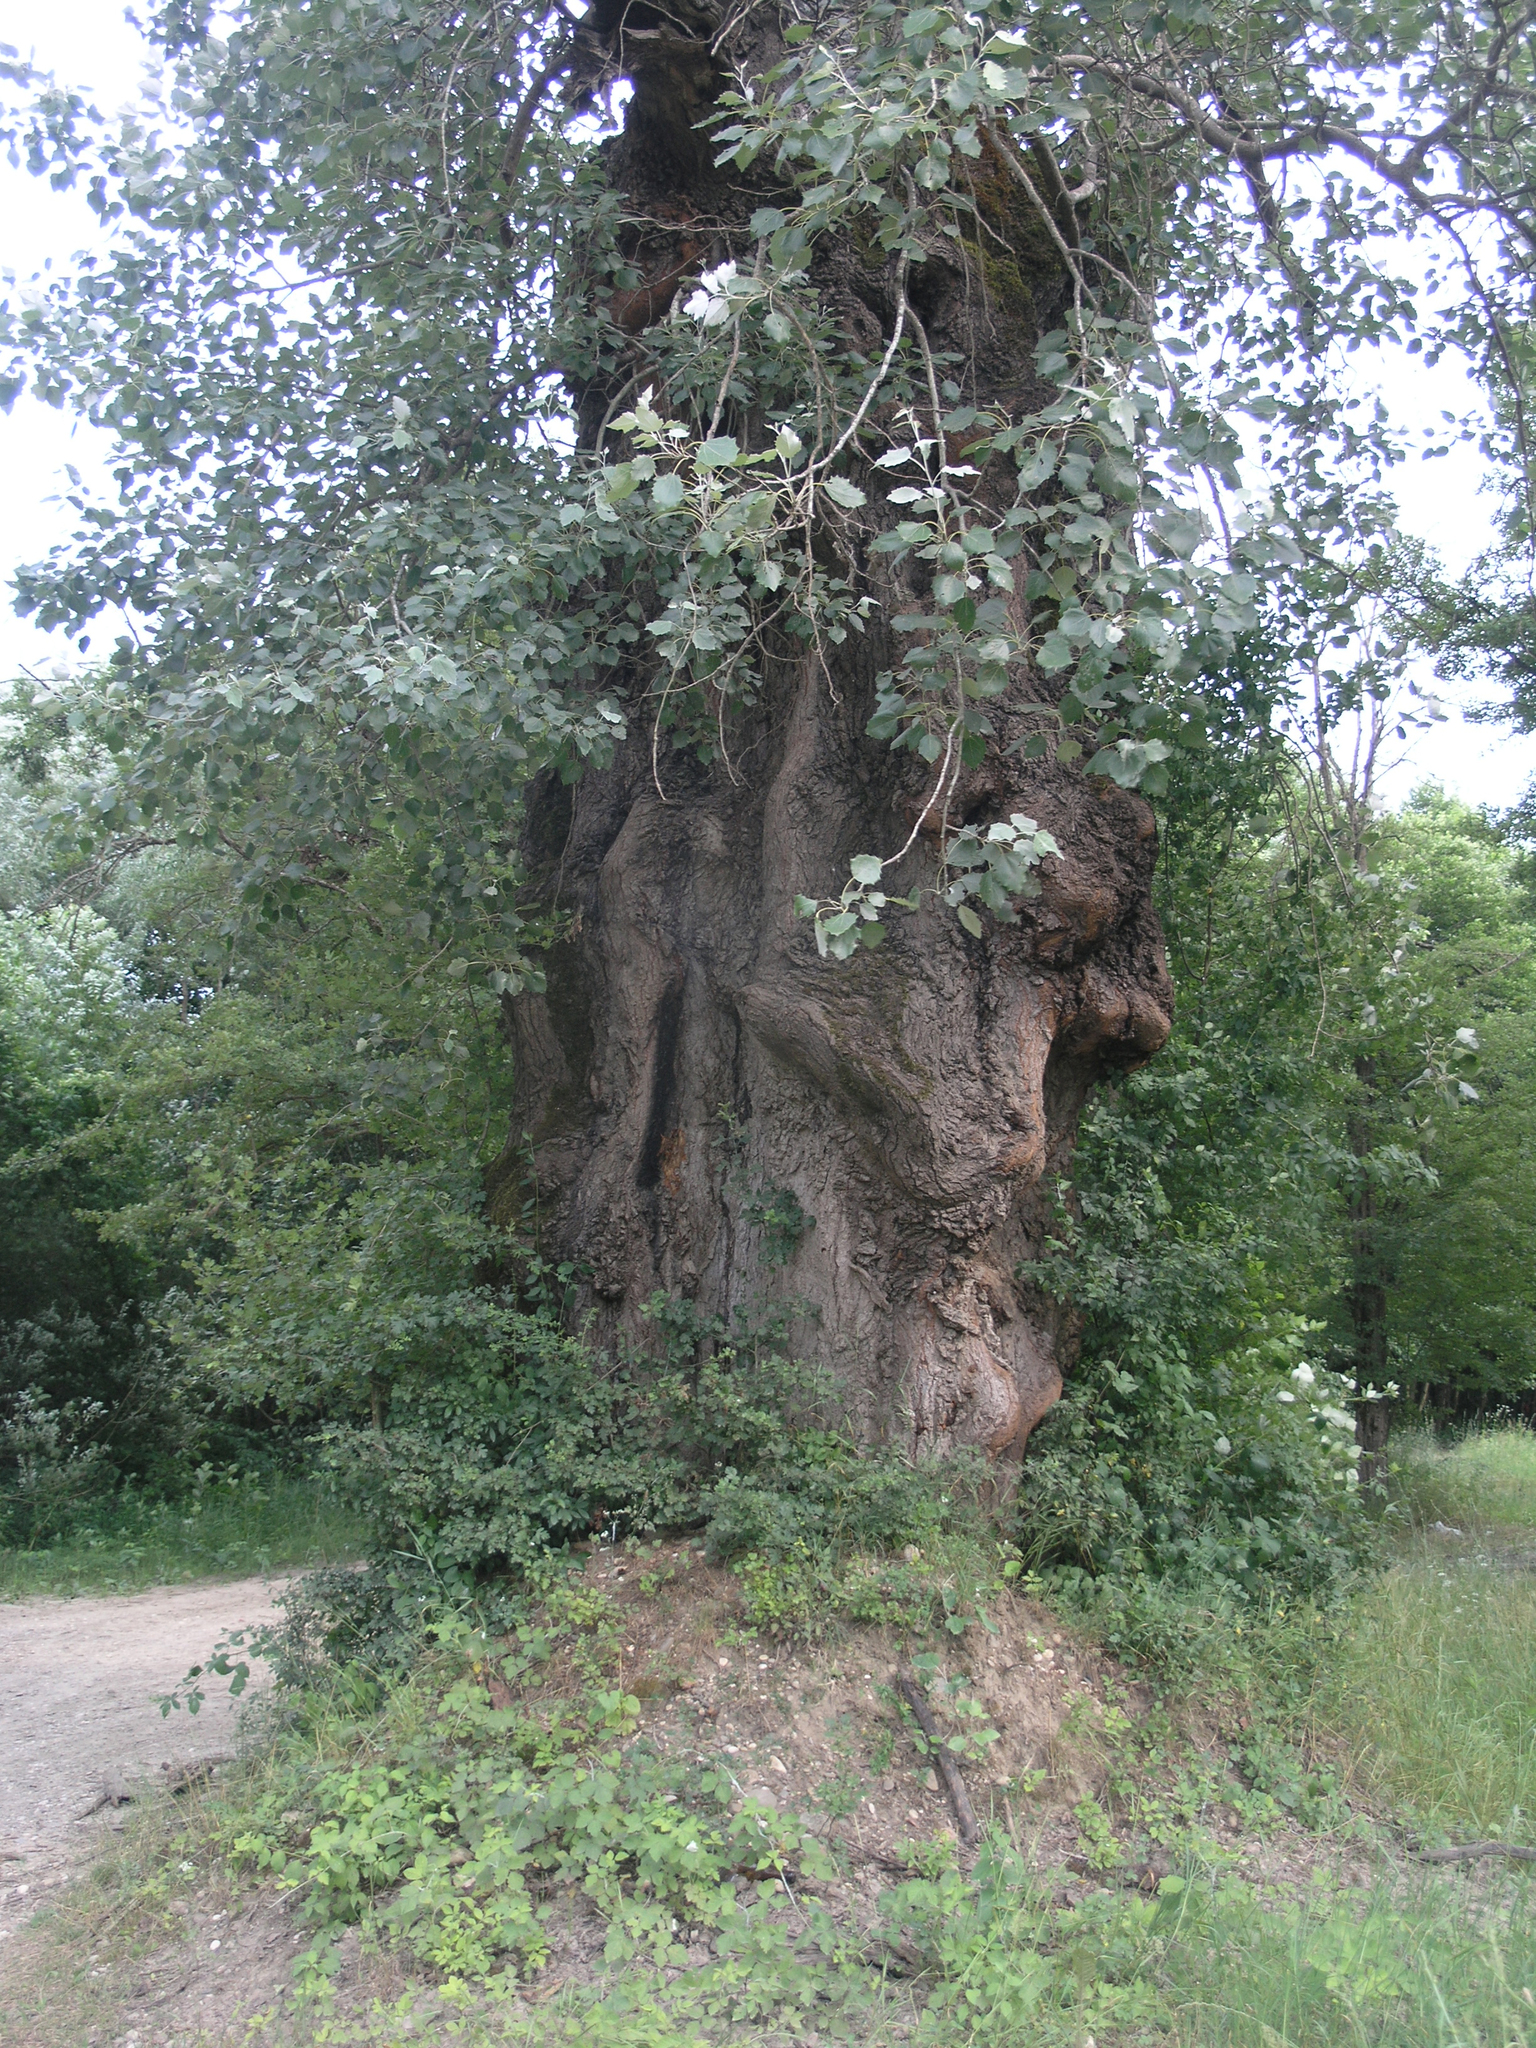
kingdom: Plantae
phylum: Tracheophyta
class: Magnoliopsida
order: Malpighiales
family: Salicaceae
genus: Populus
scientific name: Populus alba
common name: White poplar
